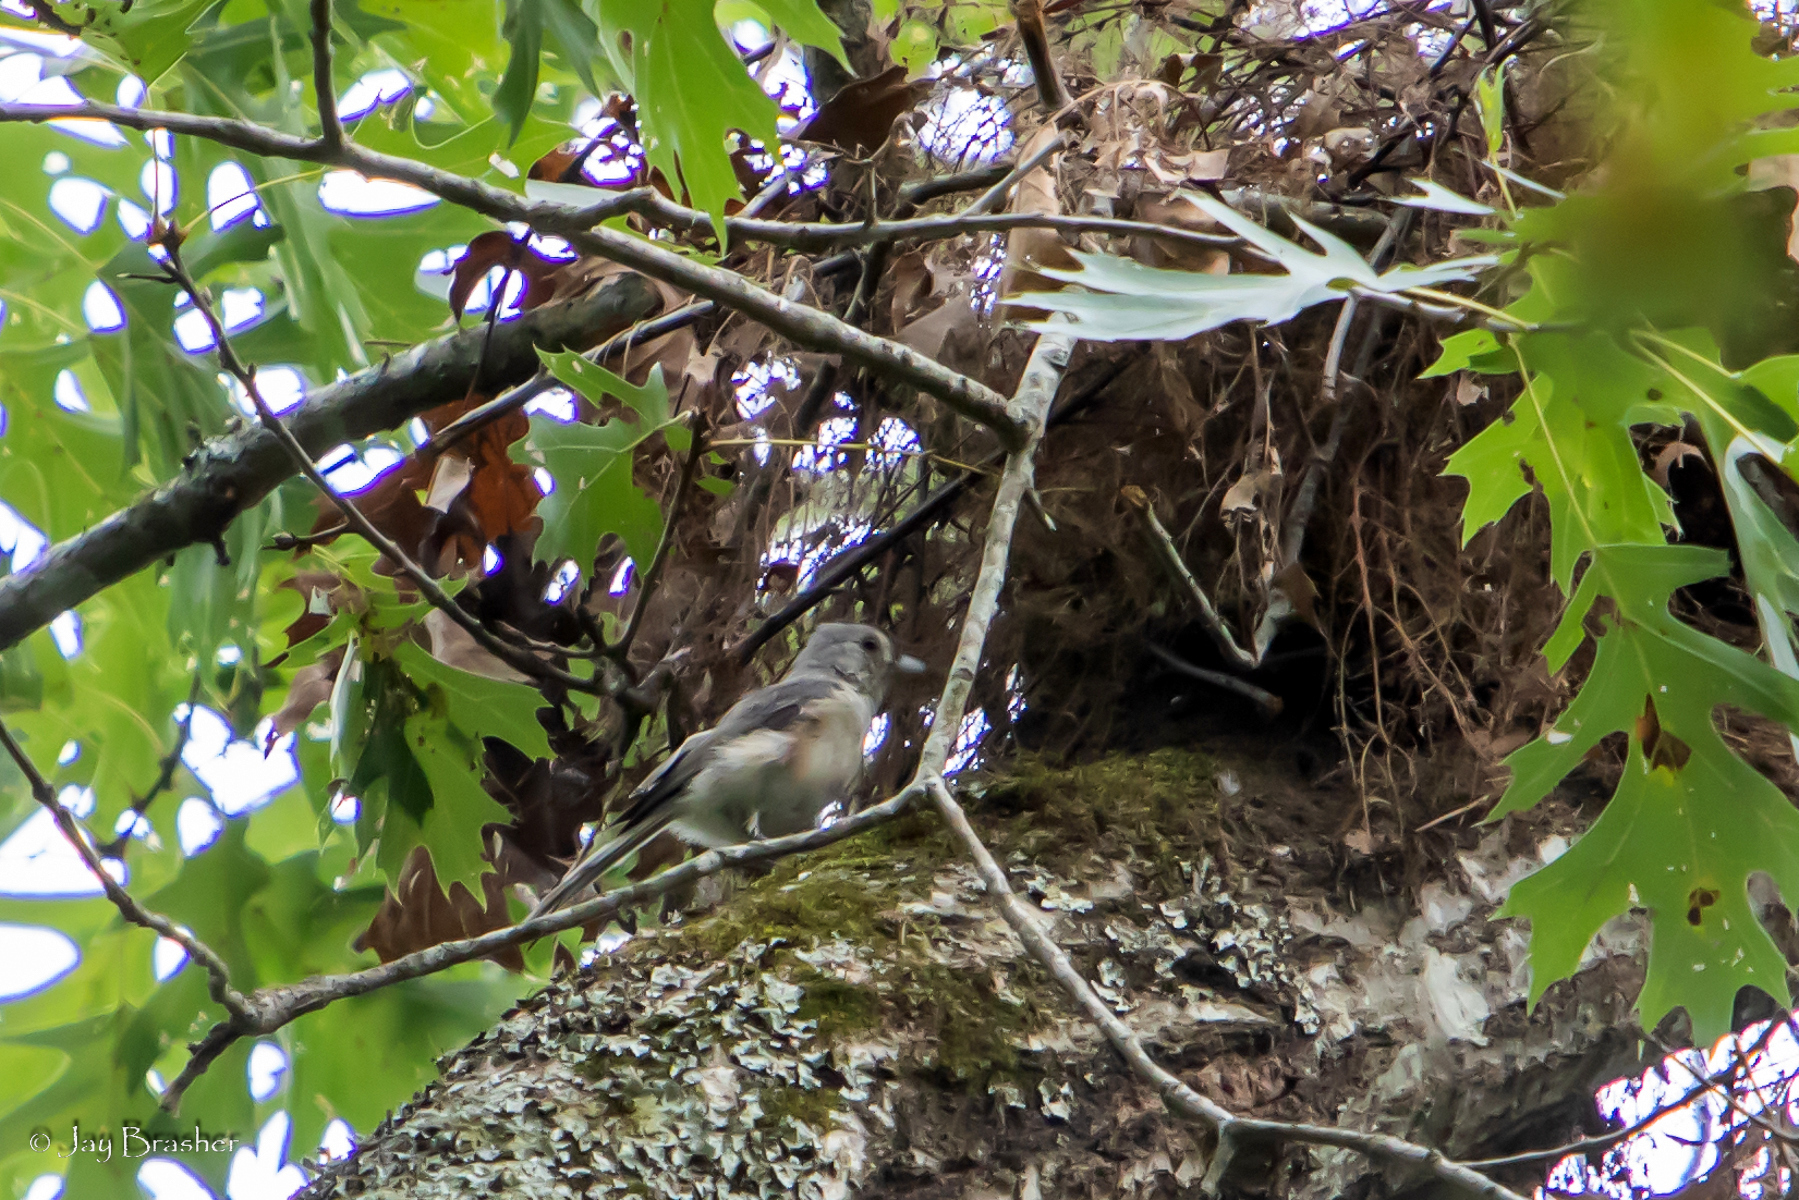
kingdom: Animalia
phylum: Chordata
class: Aves
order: Passeriformes
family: Paridae
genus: Baeolophus
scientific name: Baeolophus bicolor
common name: Tufted titmouse
